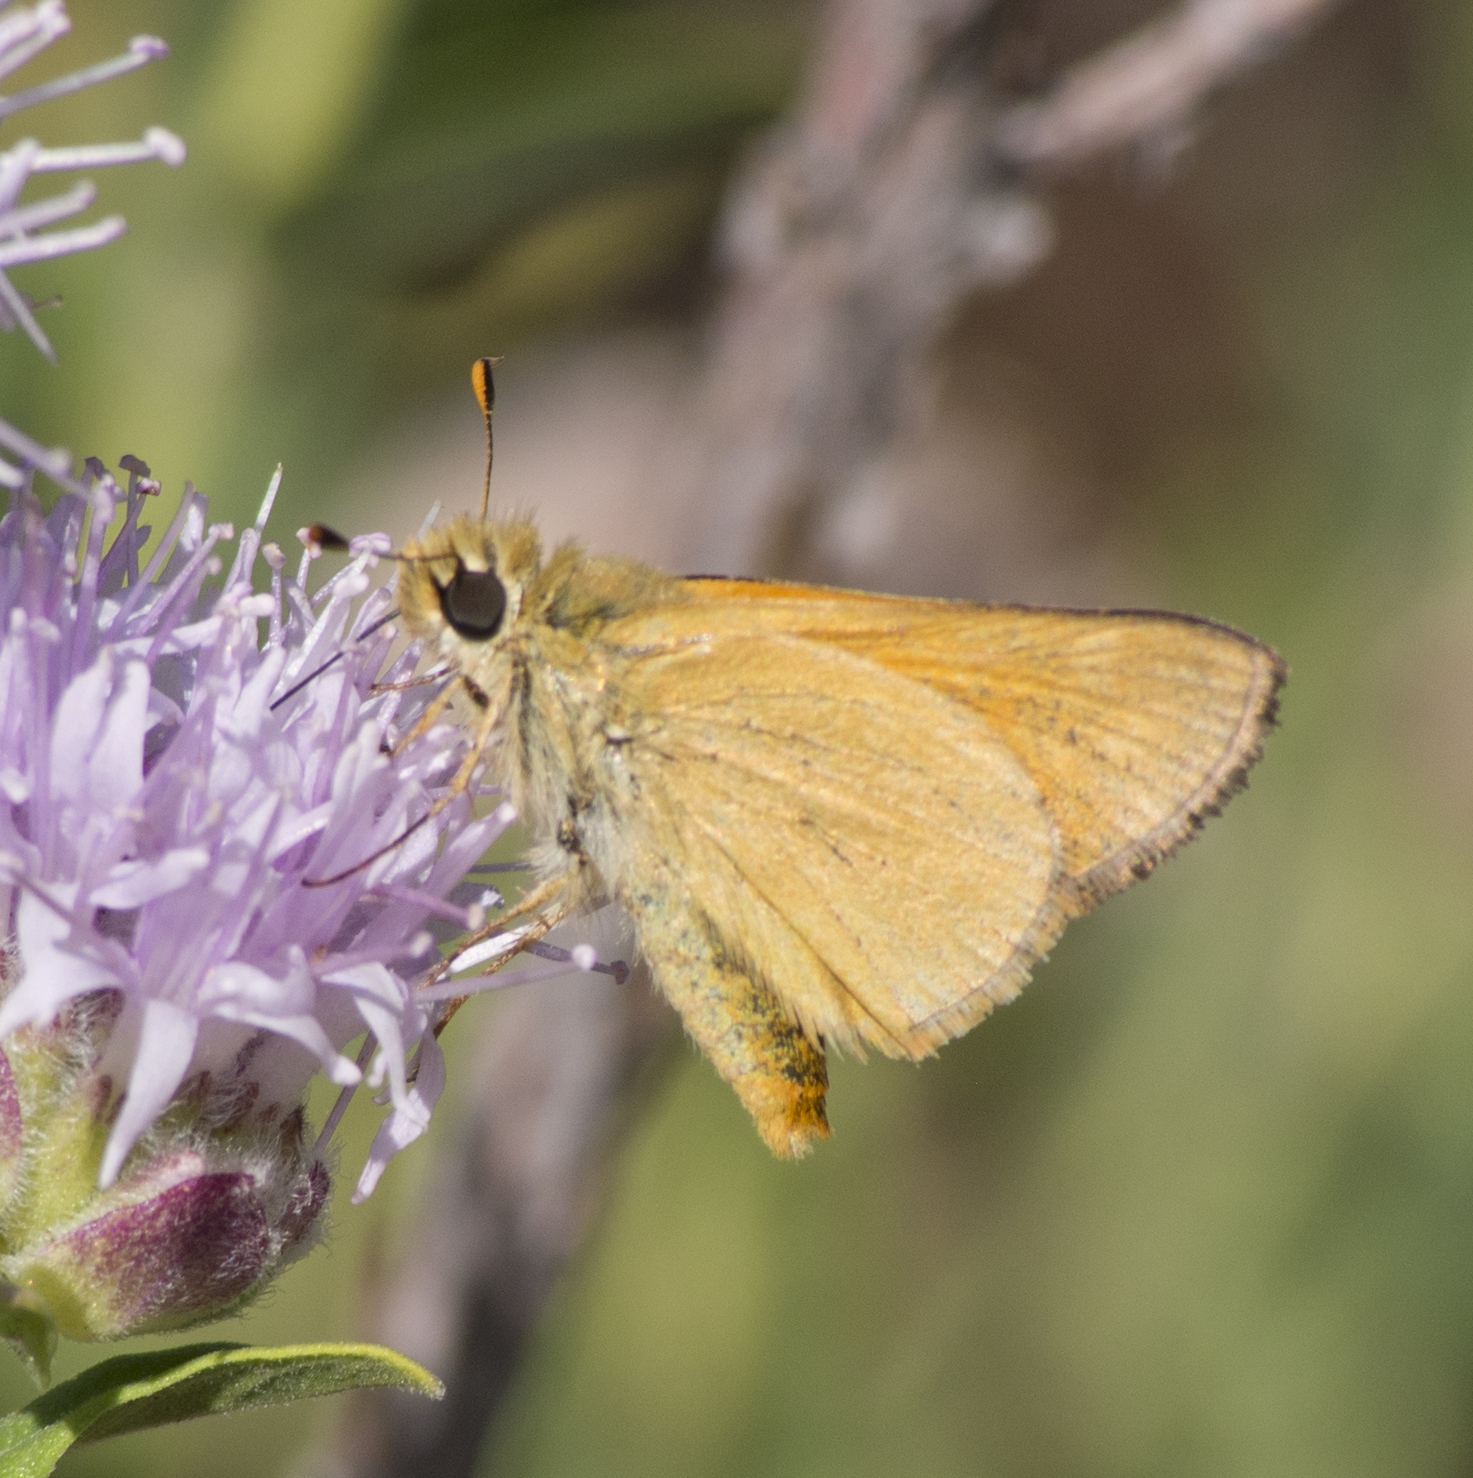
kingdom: Animalia
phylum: Arthropoda
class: Insecta
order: Lepidoptera
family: Hesperiidae
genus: Ochlodes
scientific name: Ochlodes sylvanoides
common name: Woodland skipper
